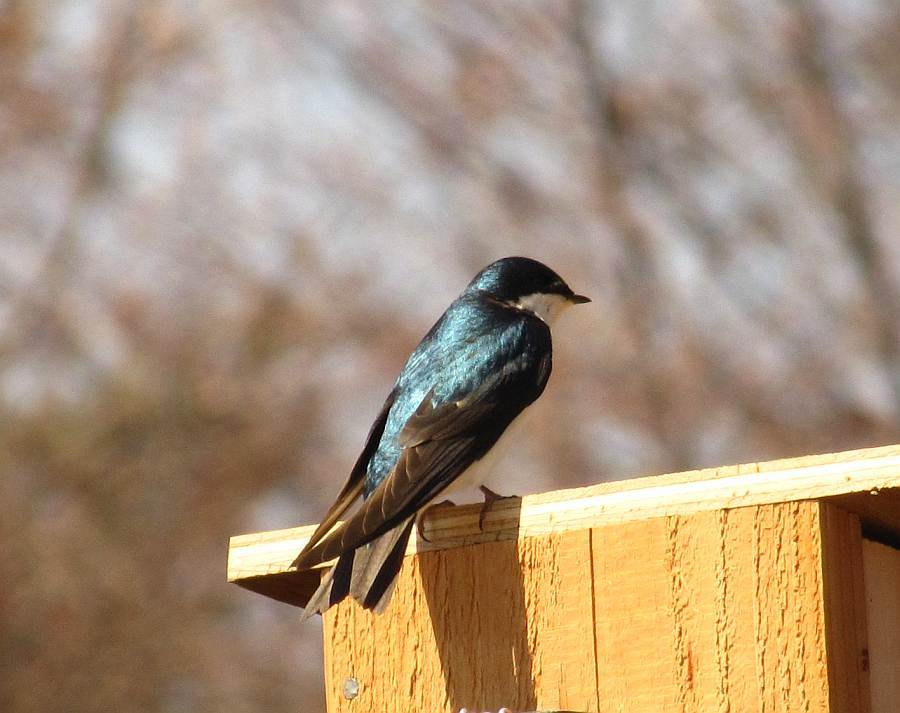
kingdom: Animalia
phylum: Chordata
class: Aves
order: Passeriformes
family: Hirundinidae
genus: Tachycineta
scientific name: Tachycineta bicolor
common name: Tree swallow
